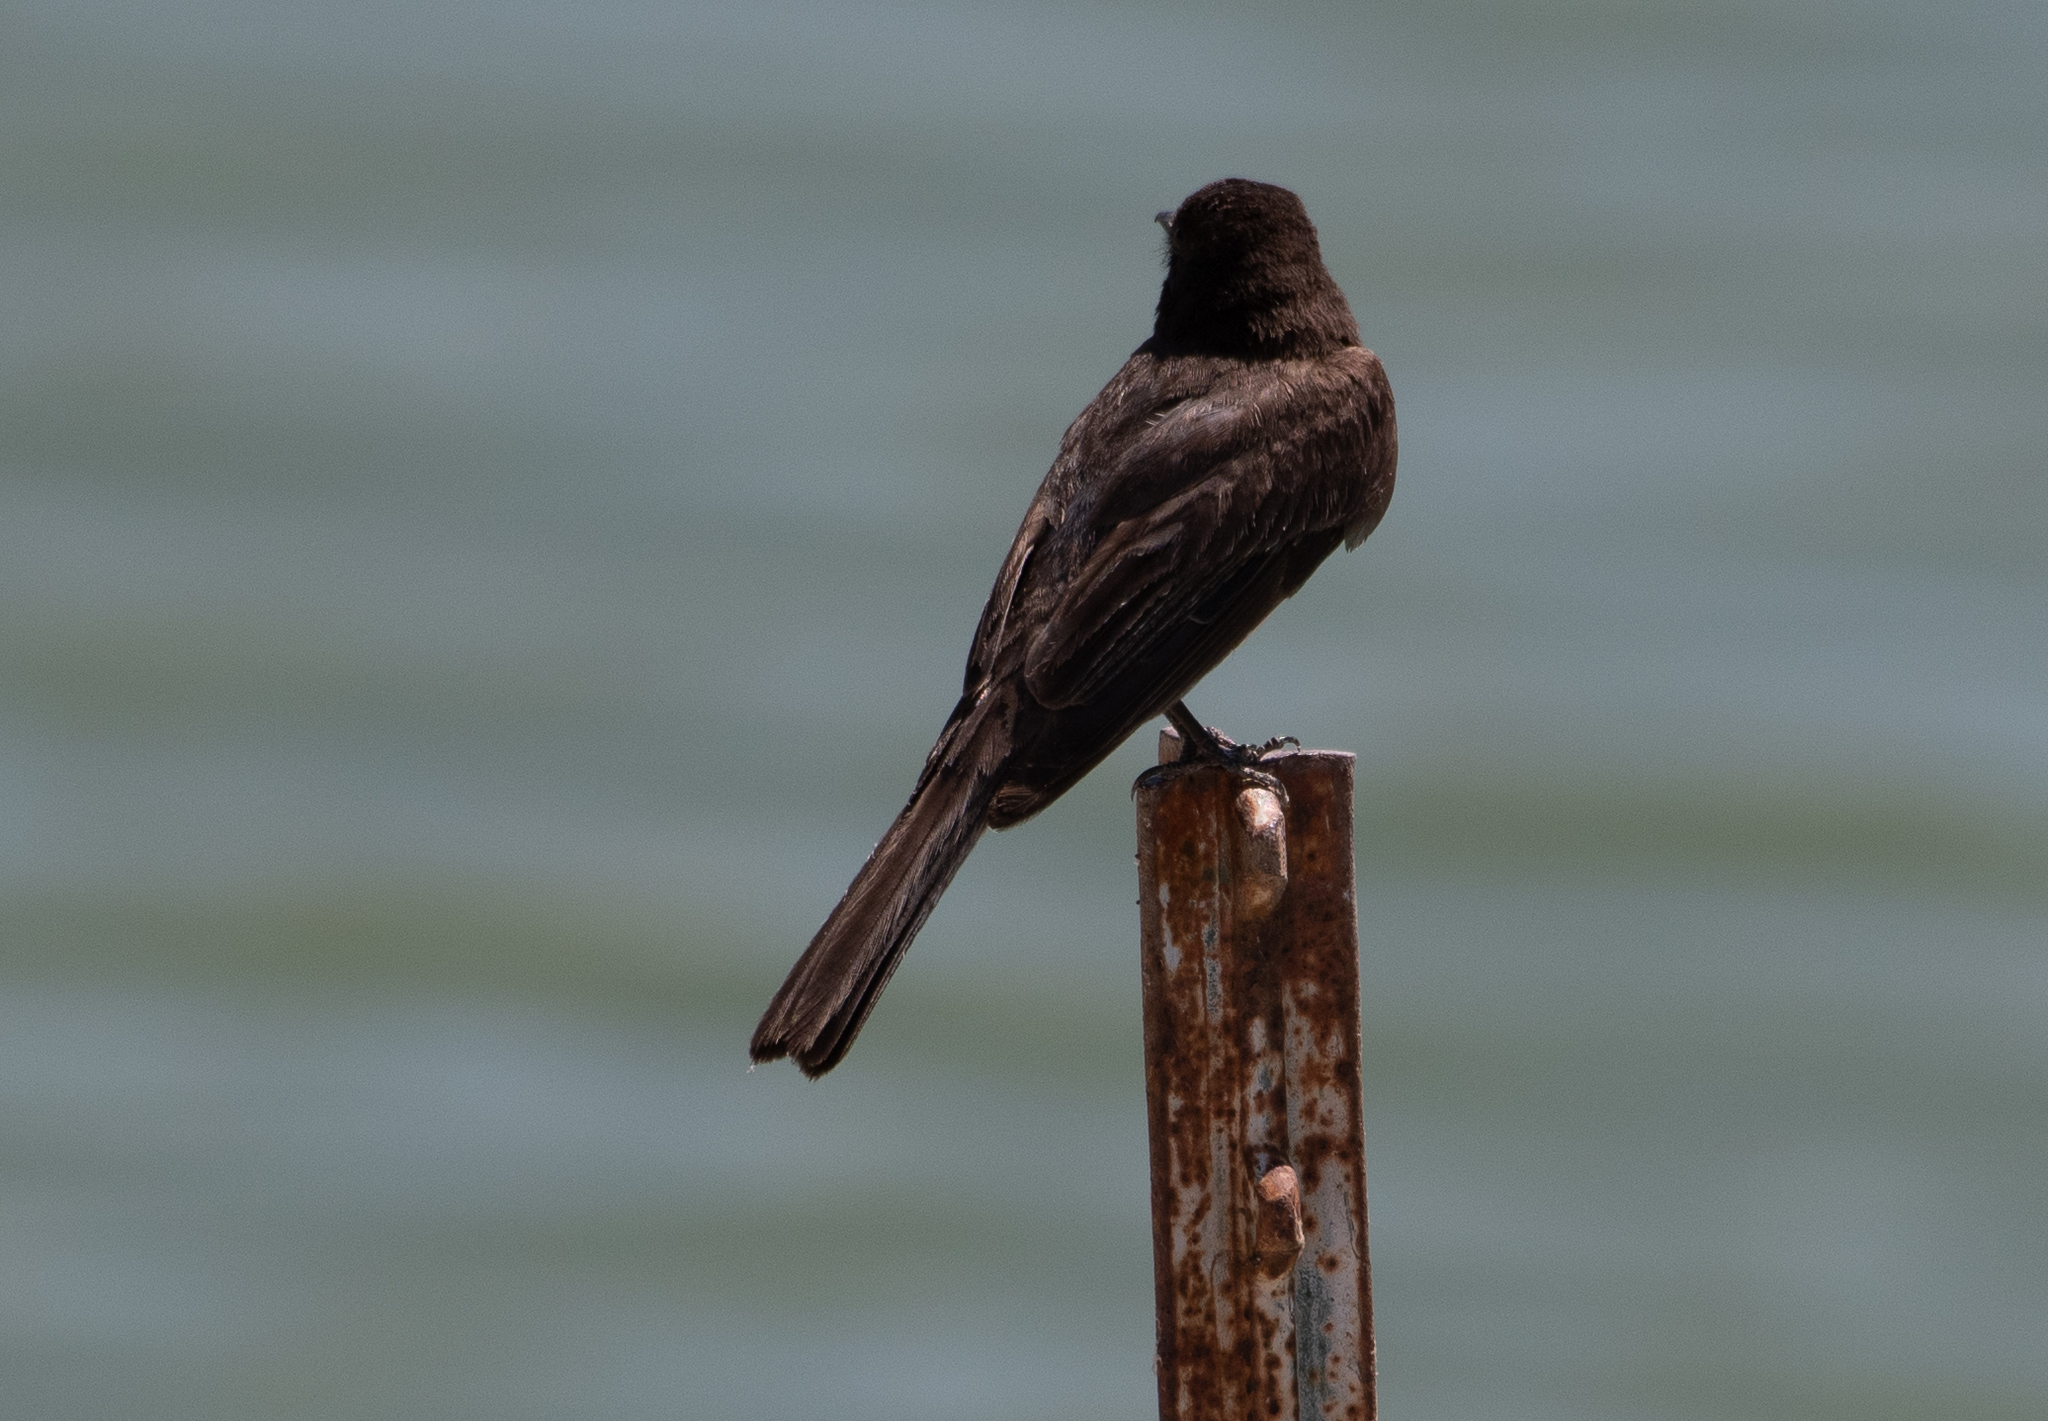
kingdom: Animalia
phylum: Chordata
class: Aves
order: Passeriformes
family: Tyrannidae
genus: Sayornis
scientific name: Sayornis nigricans
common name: Black phoebe
